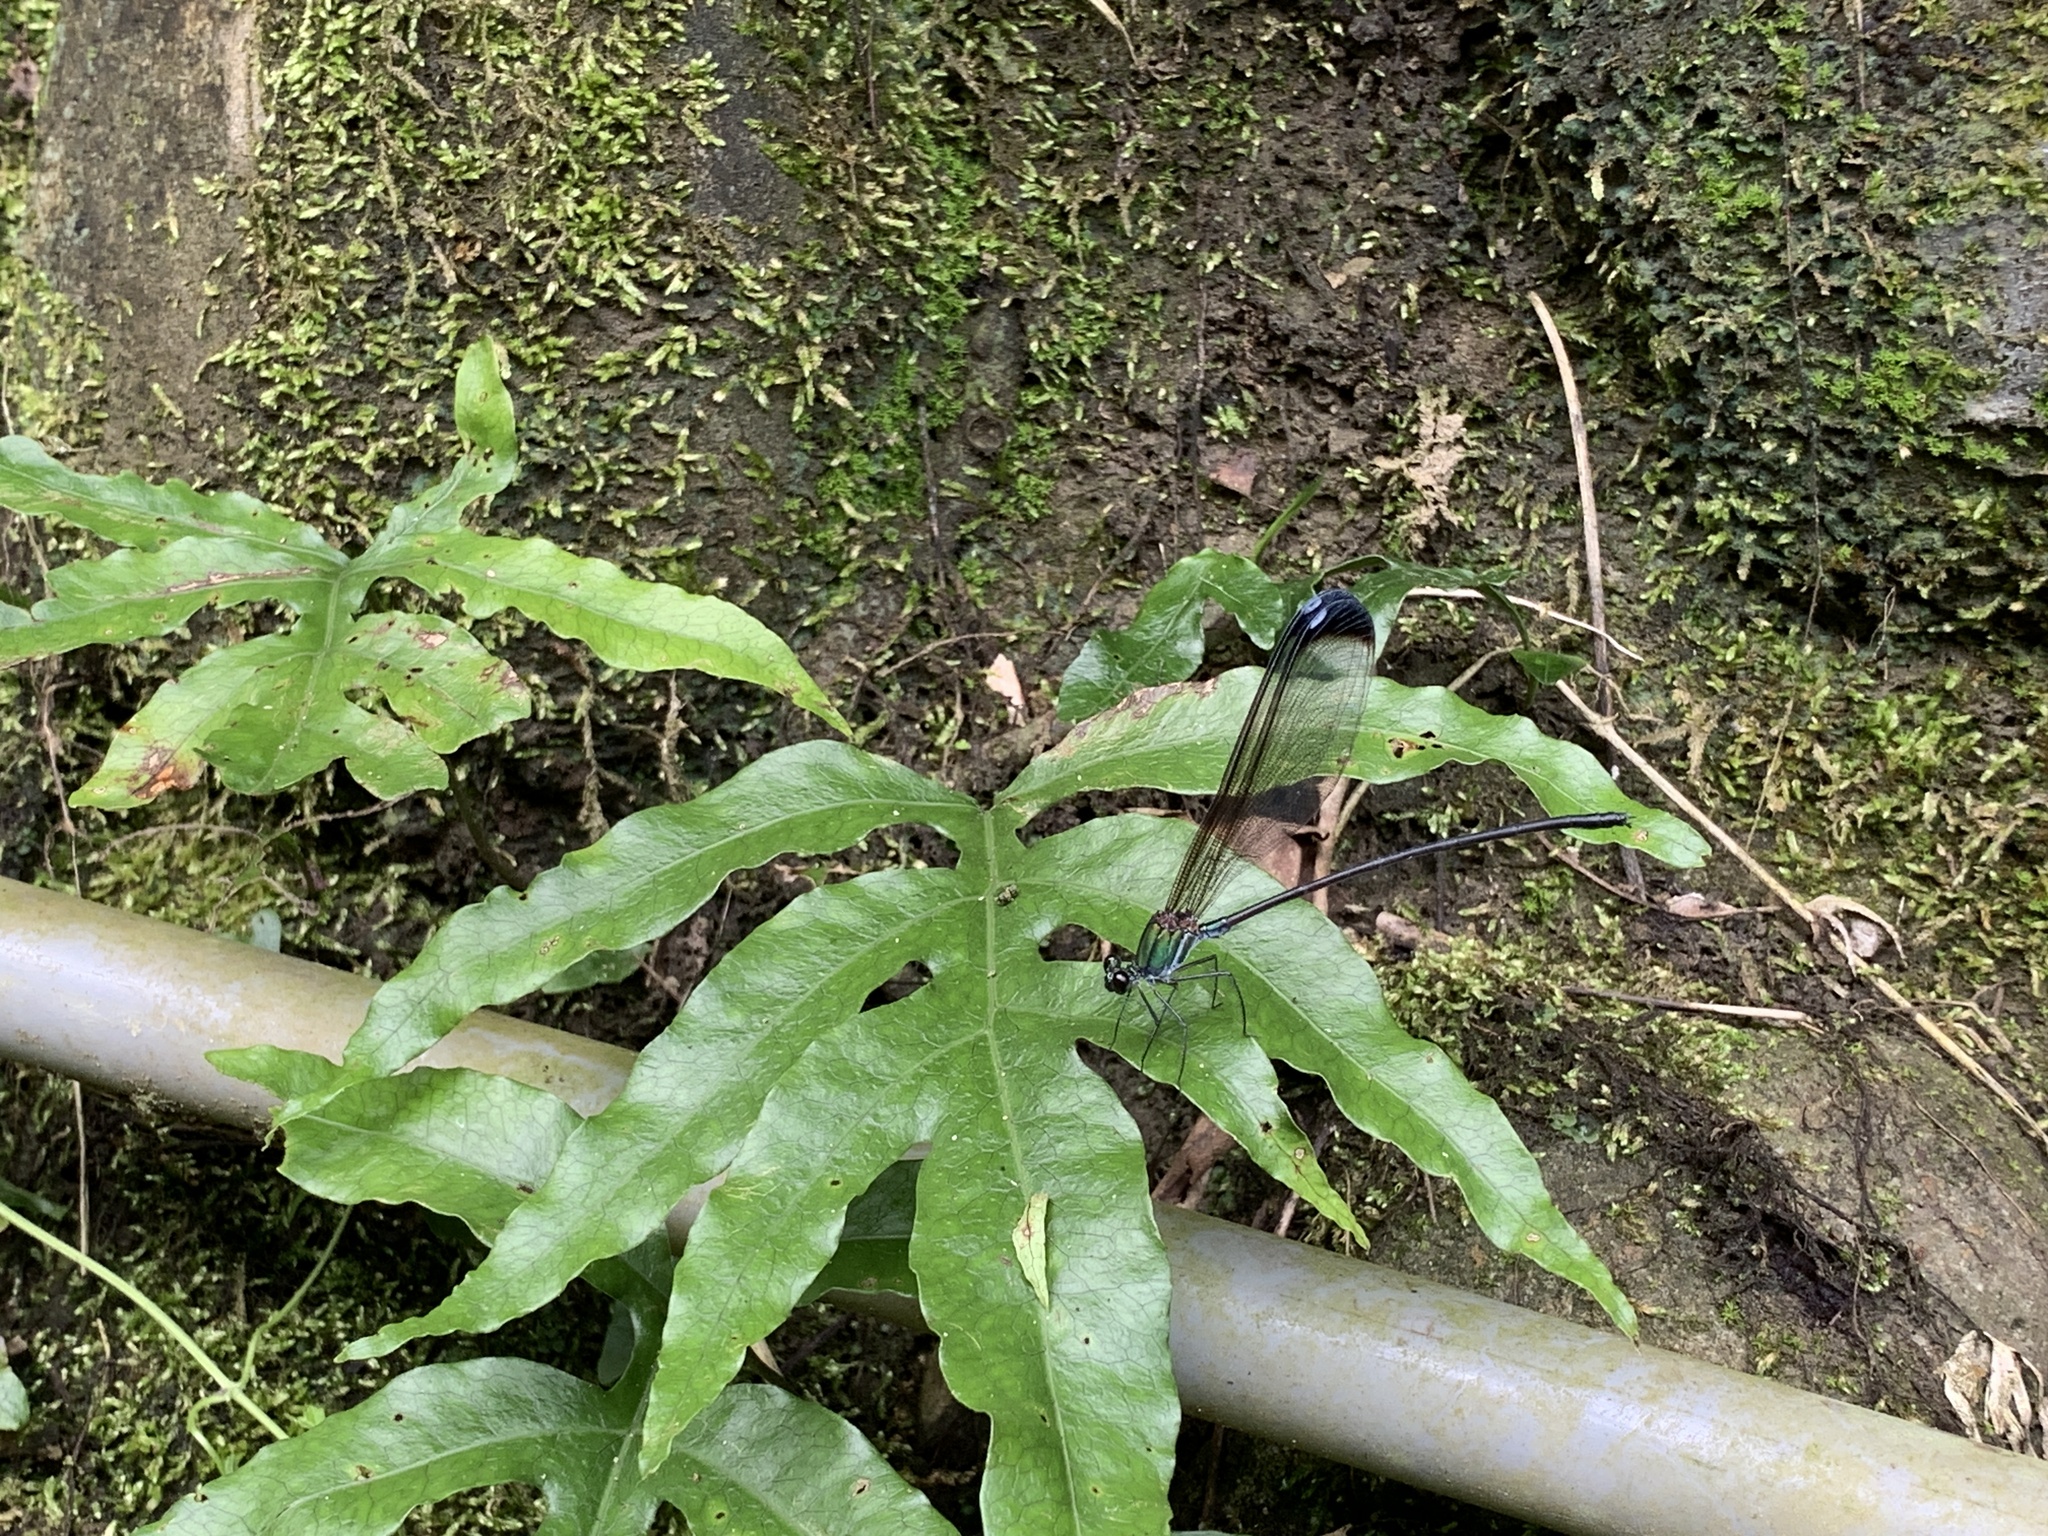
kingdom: Animalia
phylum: Arthropoda
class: Insecta
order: Odonata
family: Calopterygidae
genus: Psolodesmus
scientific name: Psolodesmus mandarinus
